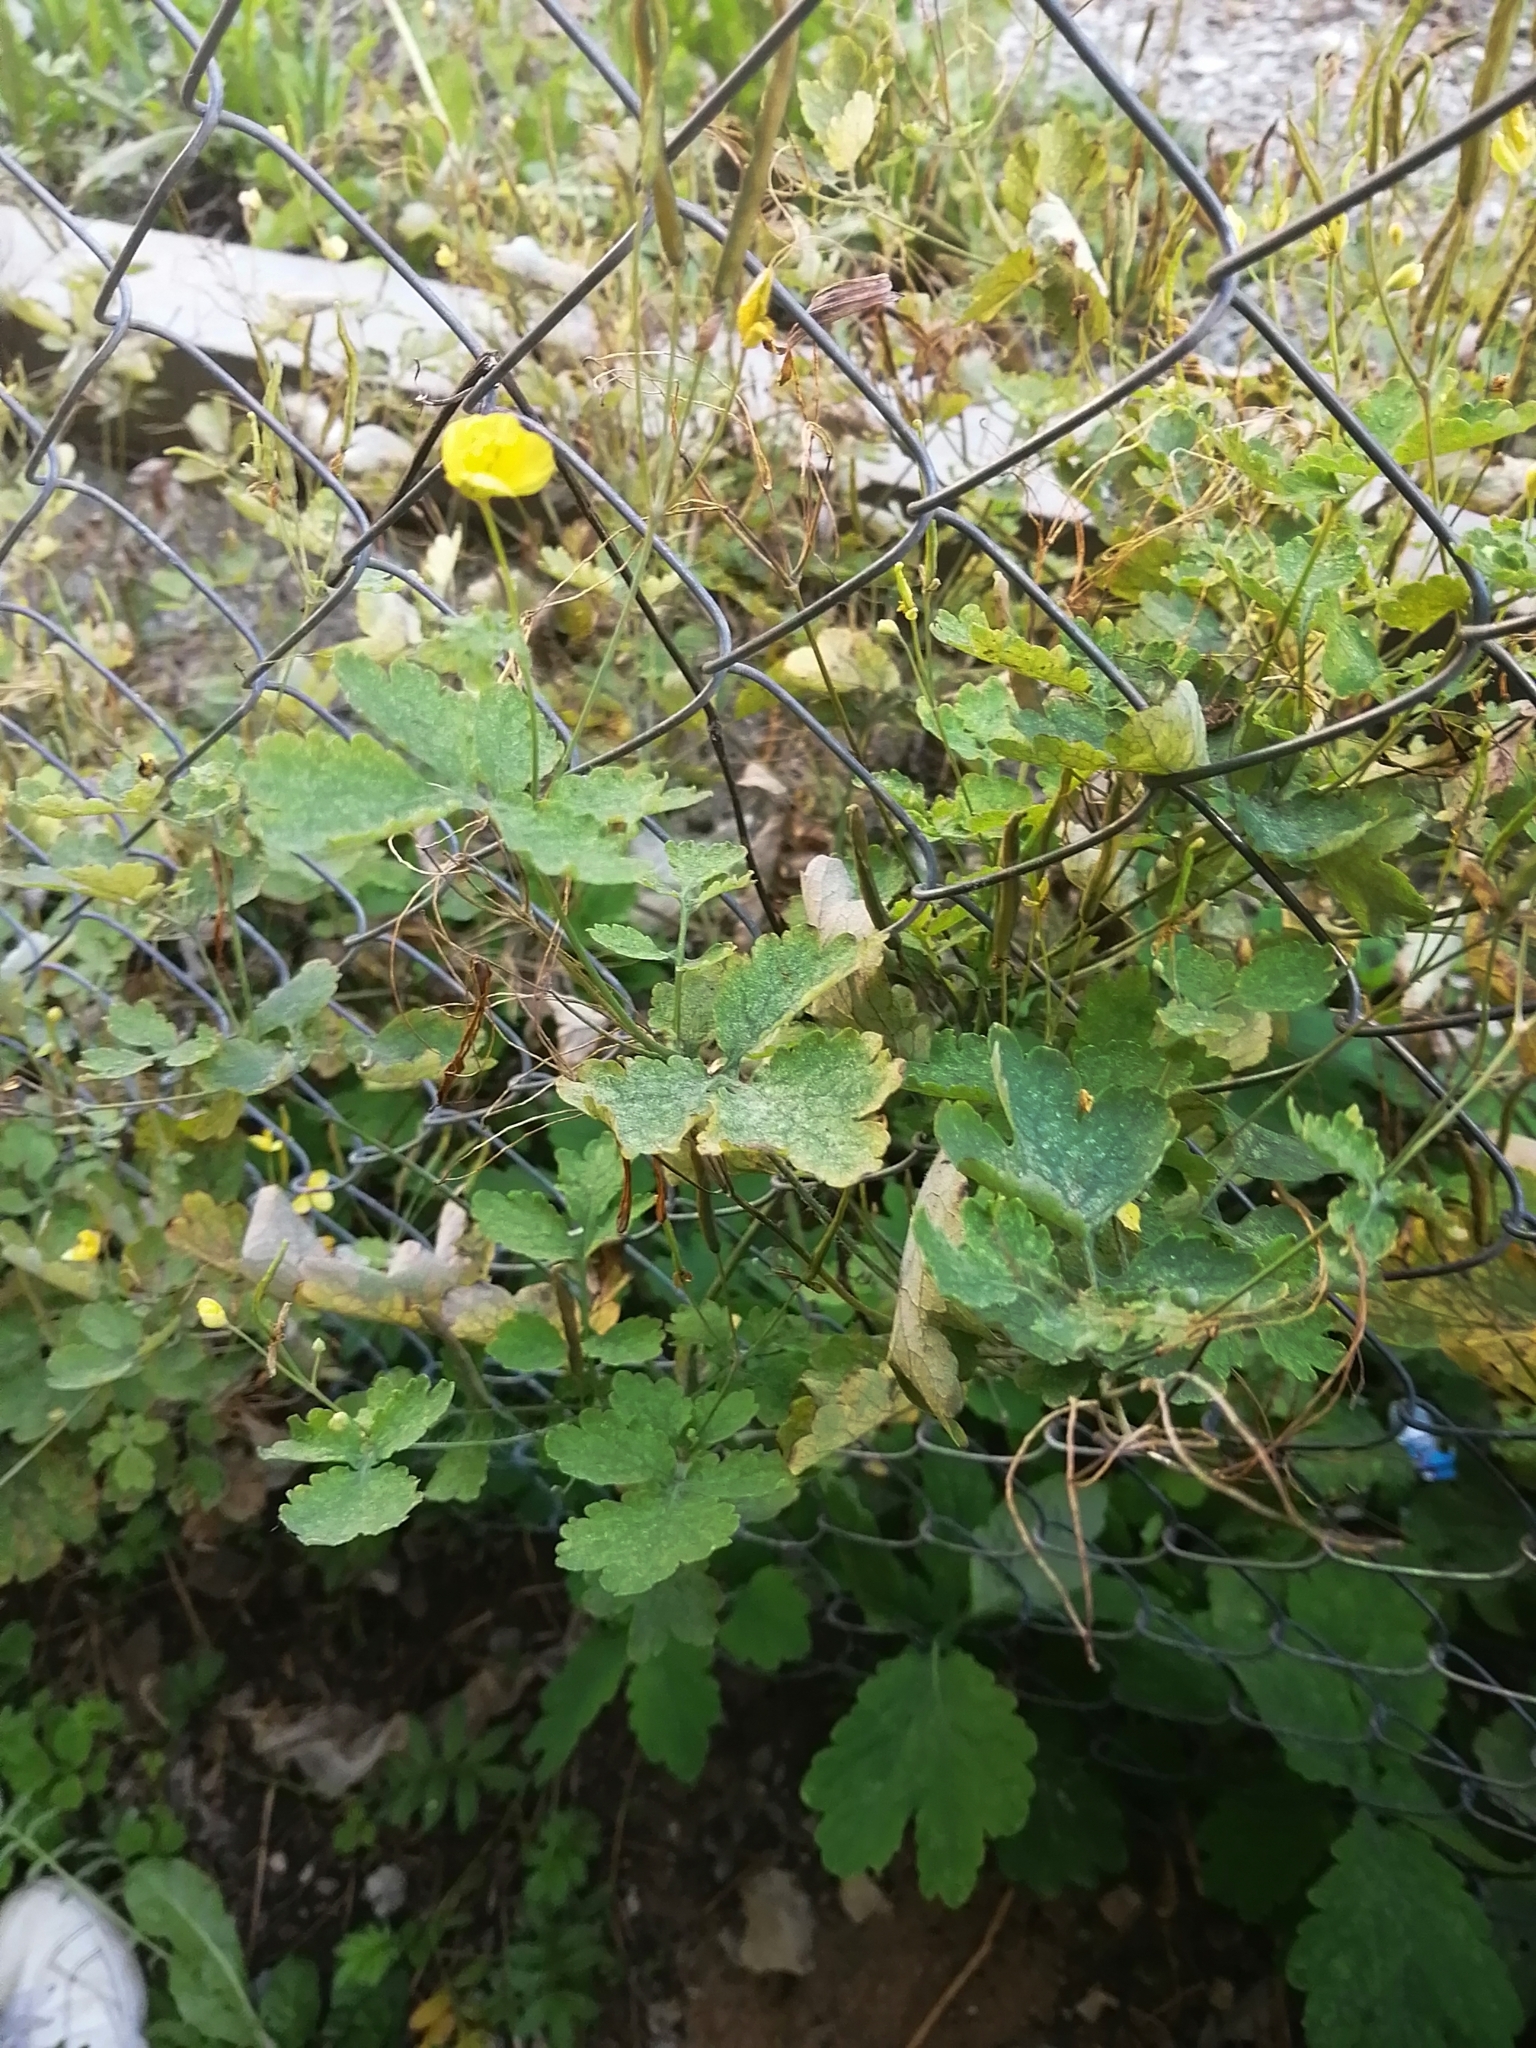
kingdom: Plantae
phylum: Tracheophyta
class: Magnoliopsida
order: Ranunculales
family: Papaveraceae
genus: Chelidonium
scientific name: Chelidonium majus
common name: Greater celandine
